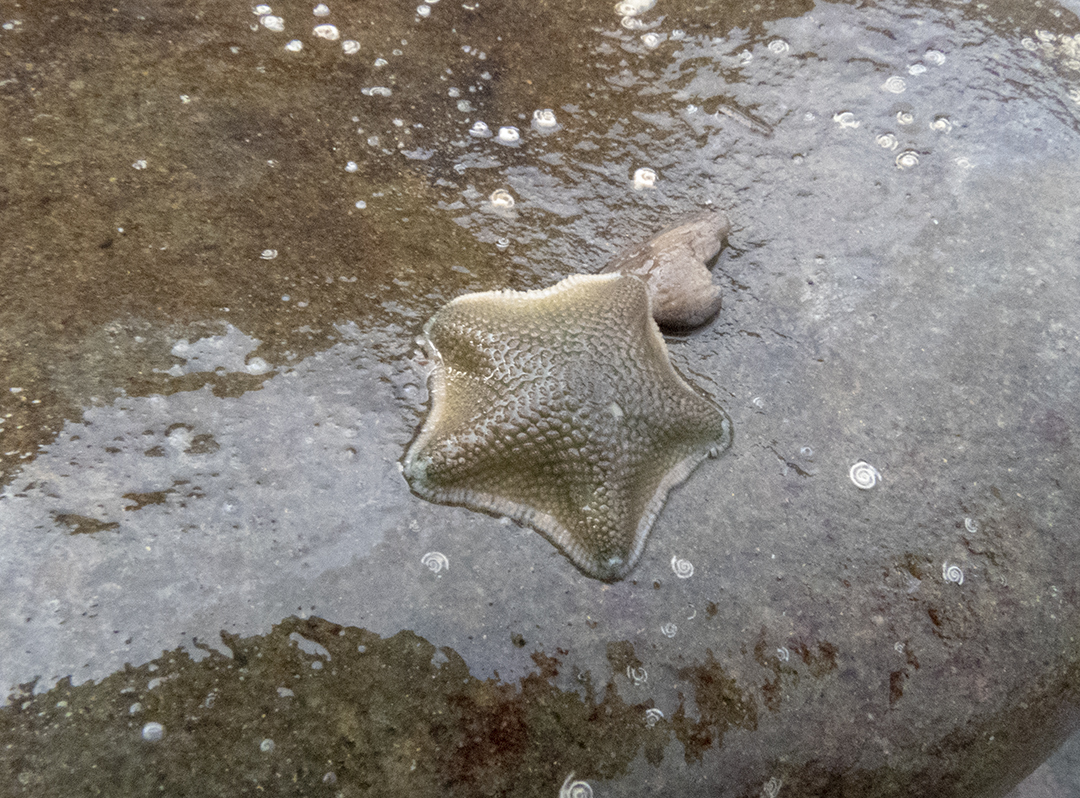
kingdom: Animalia
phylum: Echinodermata
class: Asteroidea
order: Valvatida
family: Asterinidae
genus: Patiriella
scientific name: Patiriella regularis
